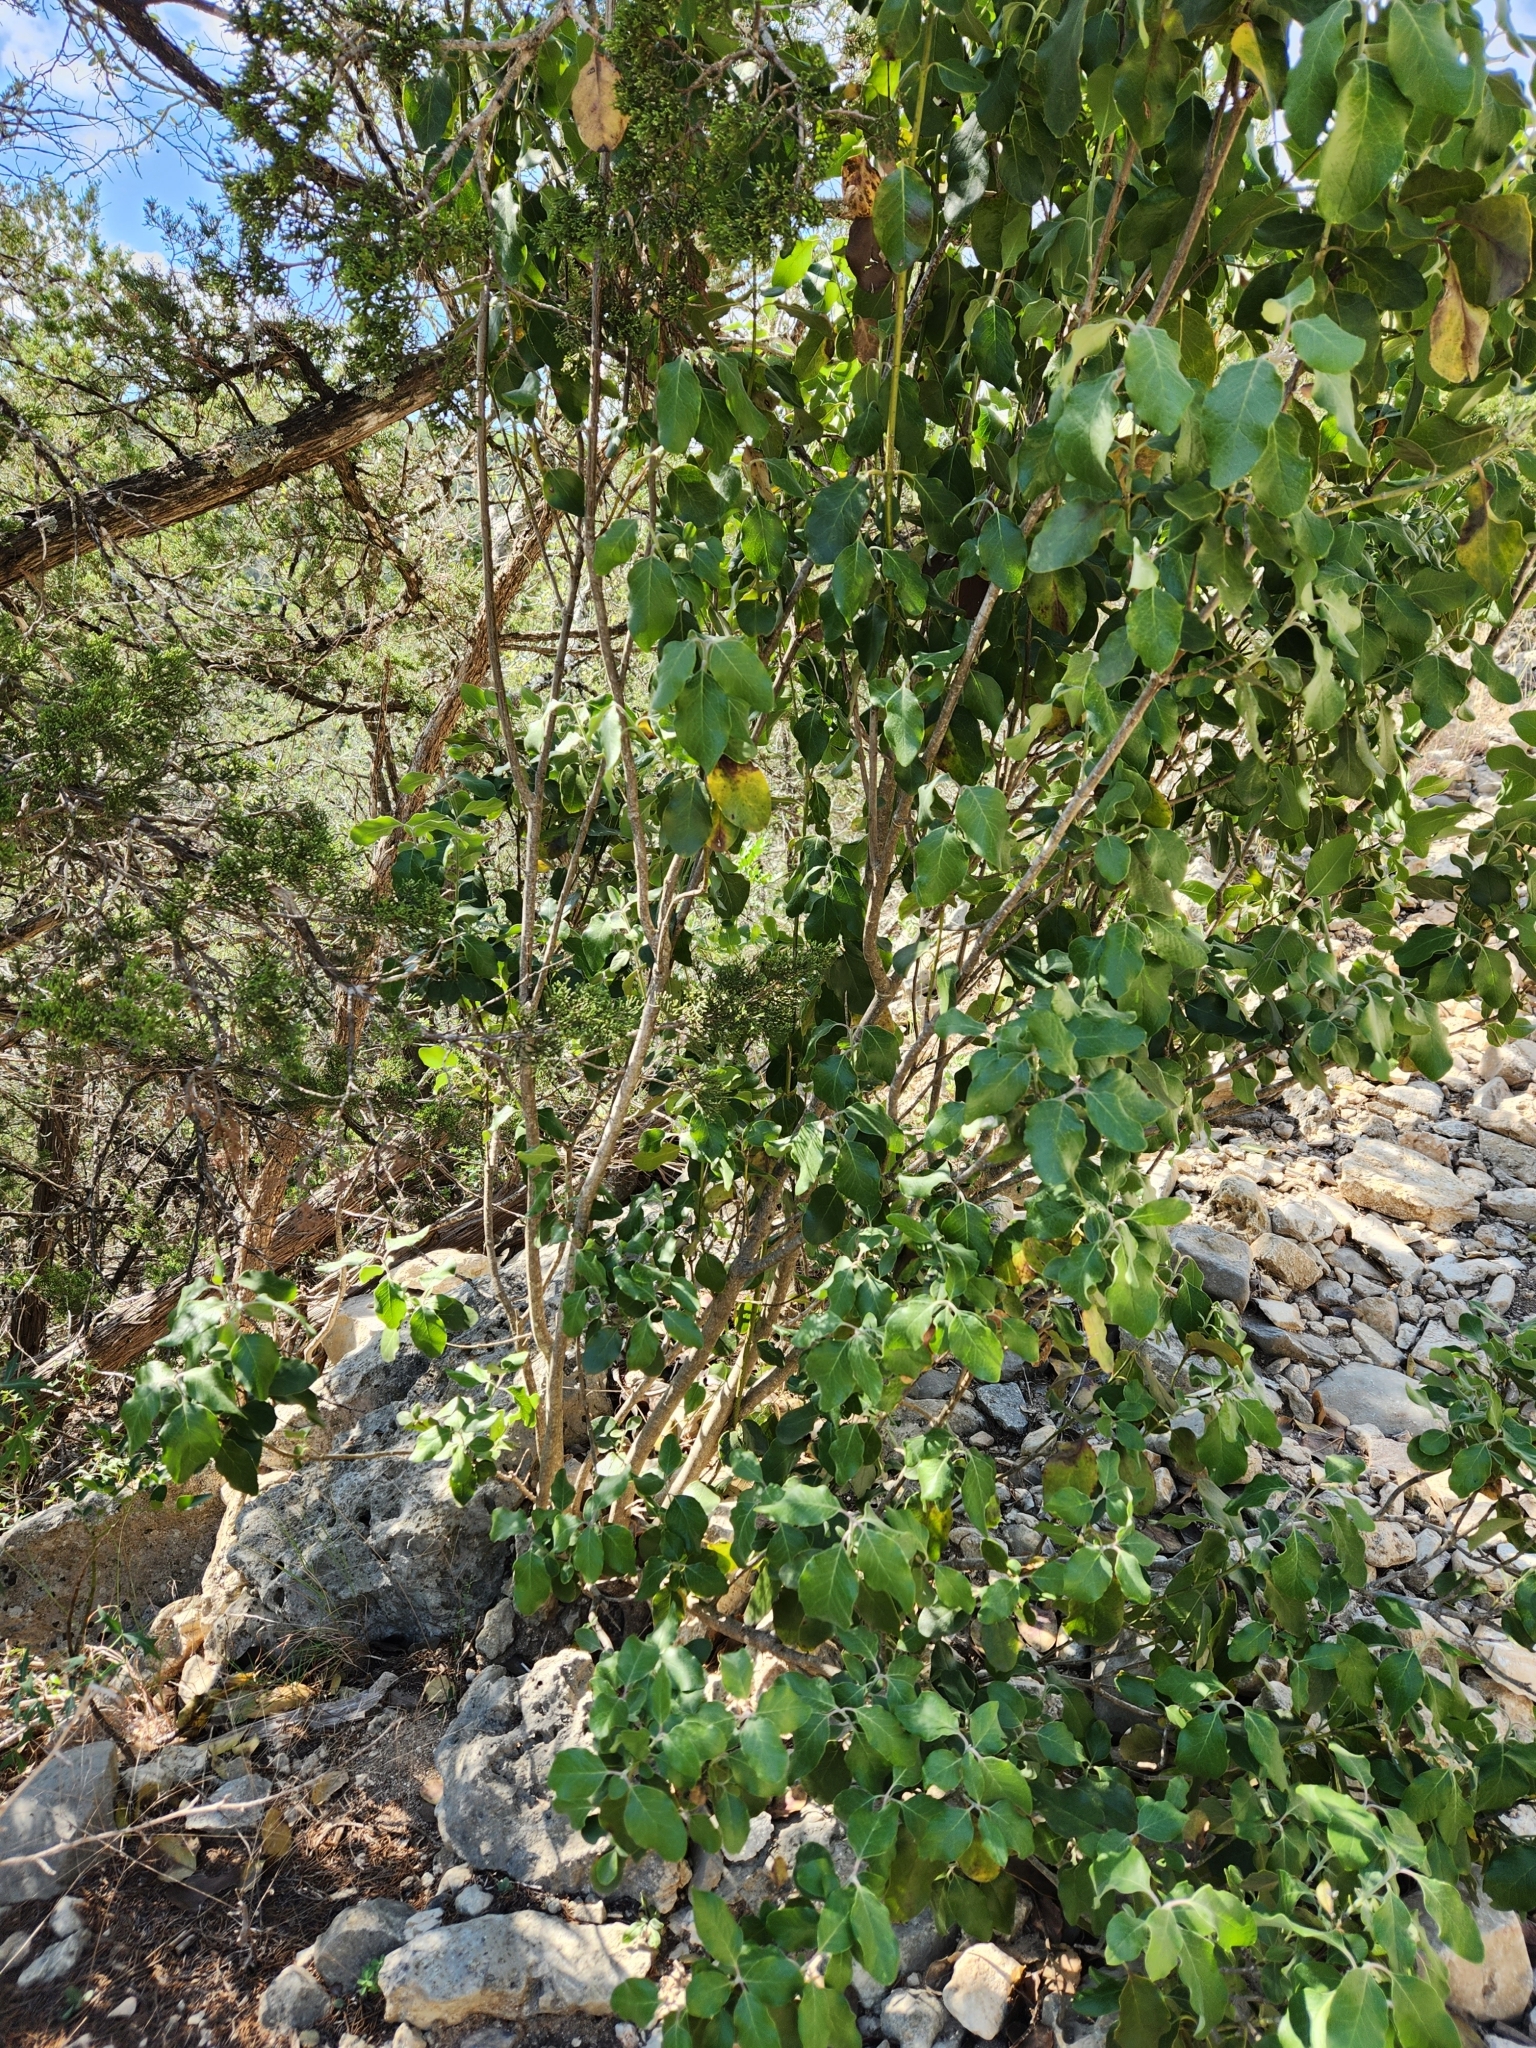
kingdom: Plantae
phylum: Tracheophyta
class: Magnoliopsida
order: Garryales
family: Garryaceae
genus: Garrya
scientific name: Garrya lindheimeri
